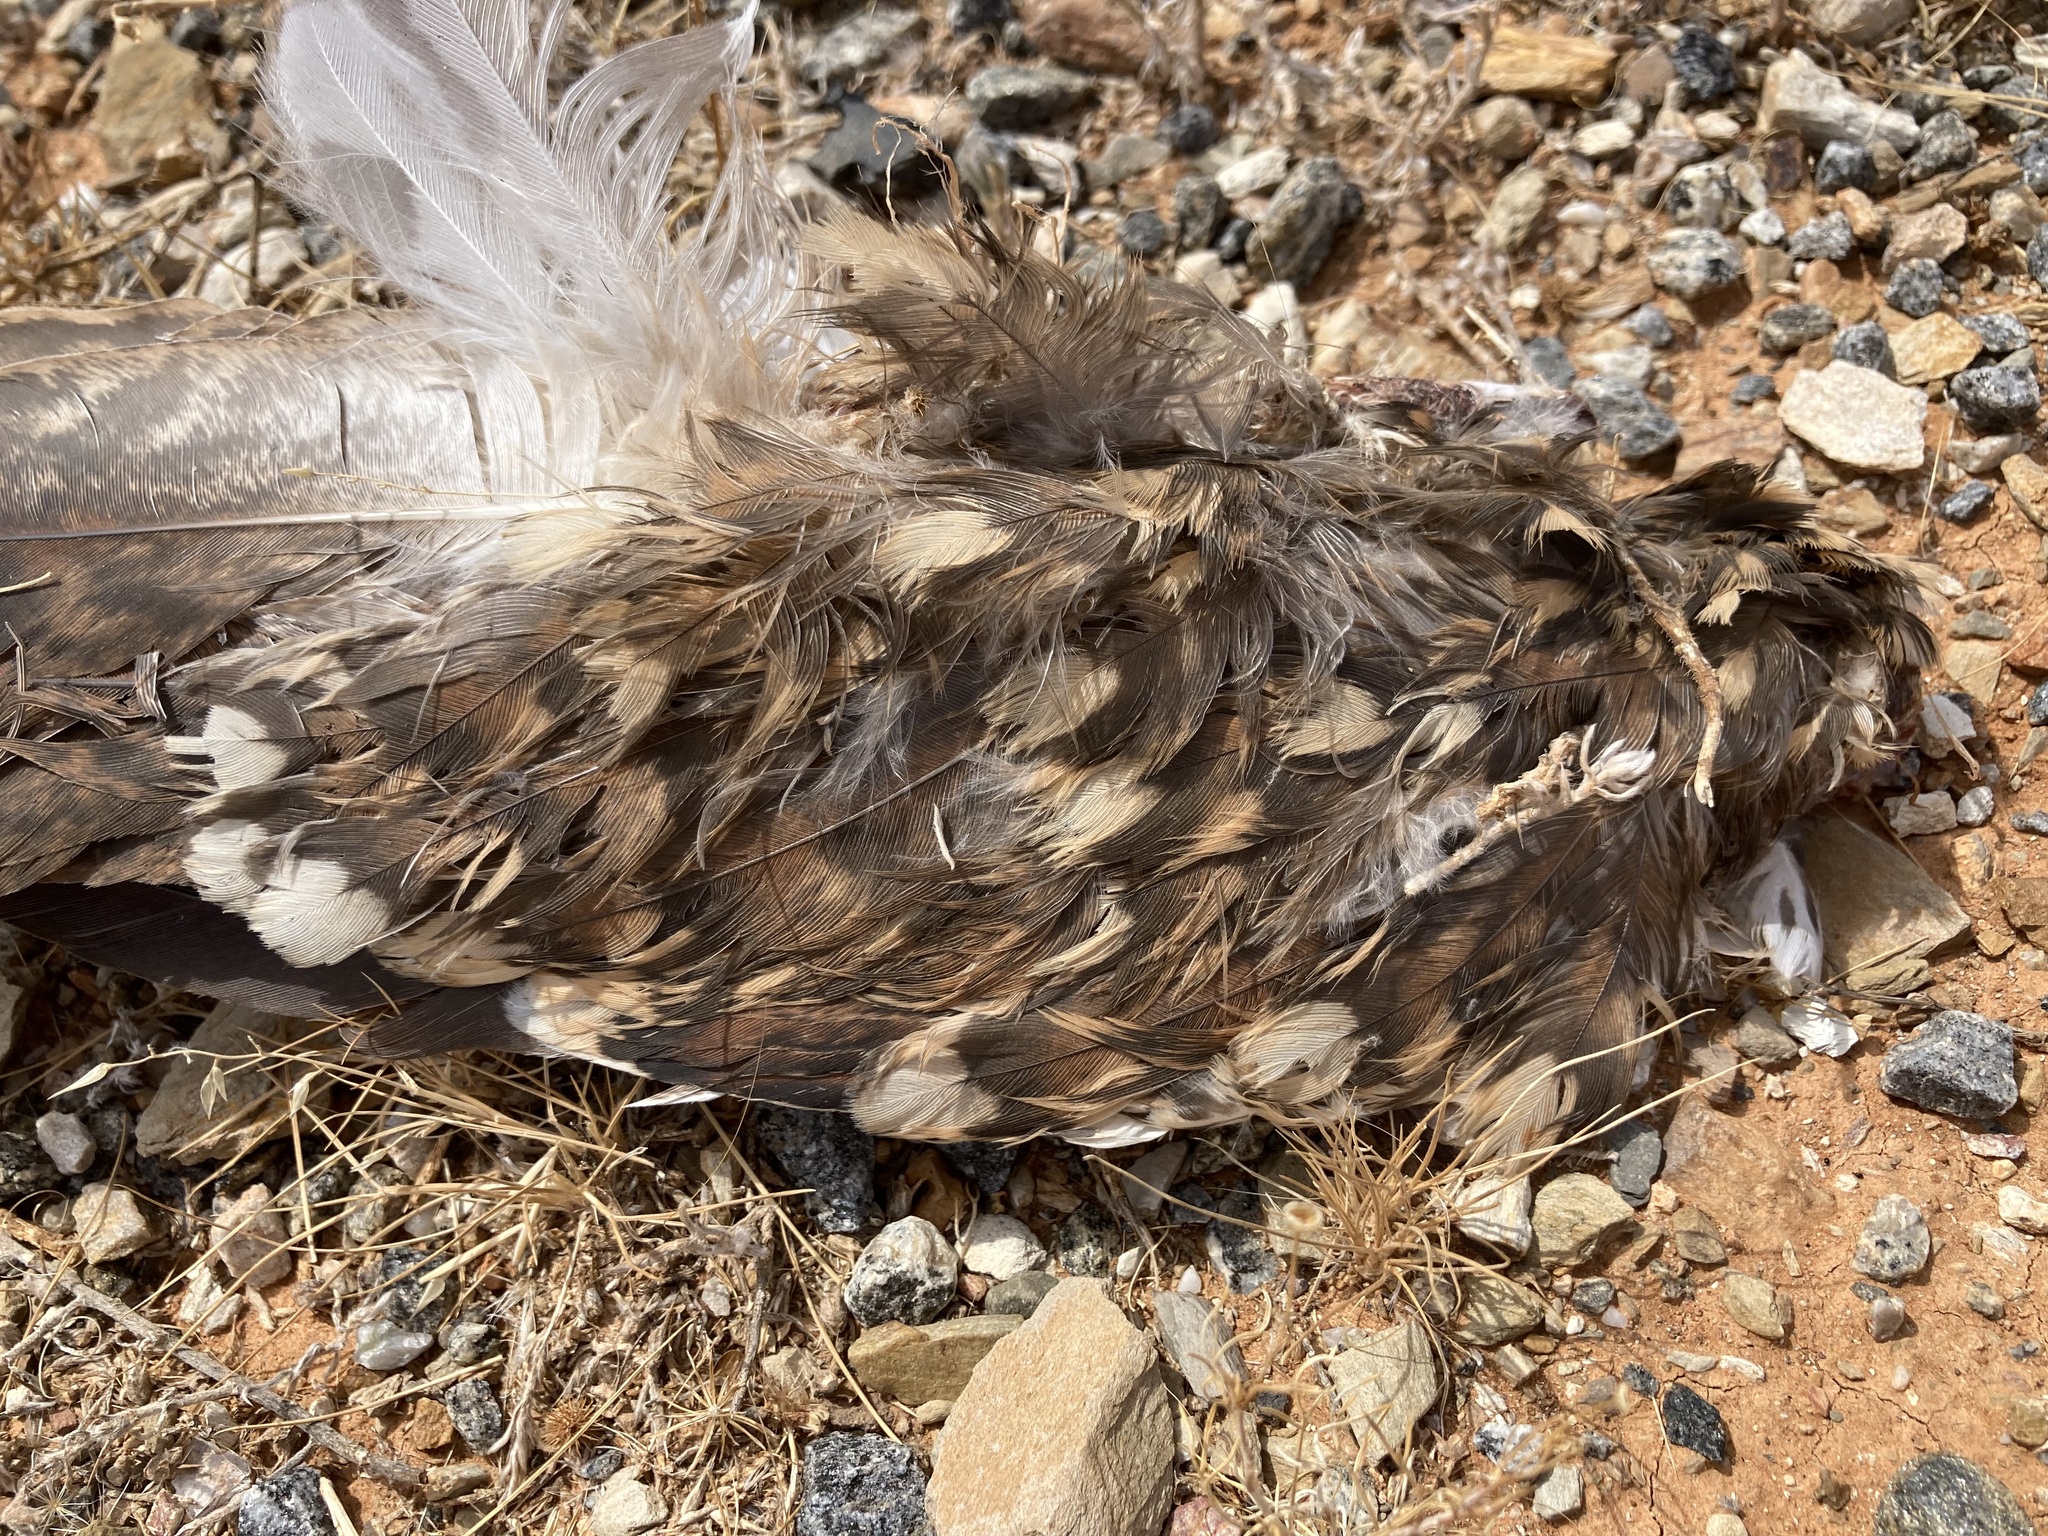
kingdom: Animalia
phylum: Chordata
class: Aves
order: Caprimulgiformes
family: Caprimulgidae
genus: Eurostopodus
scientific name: Eurostopodus argus
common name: Spotted nightjar
